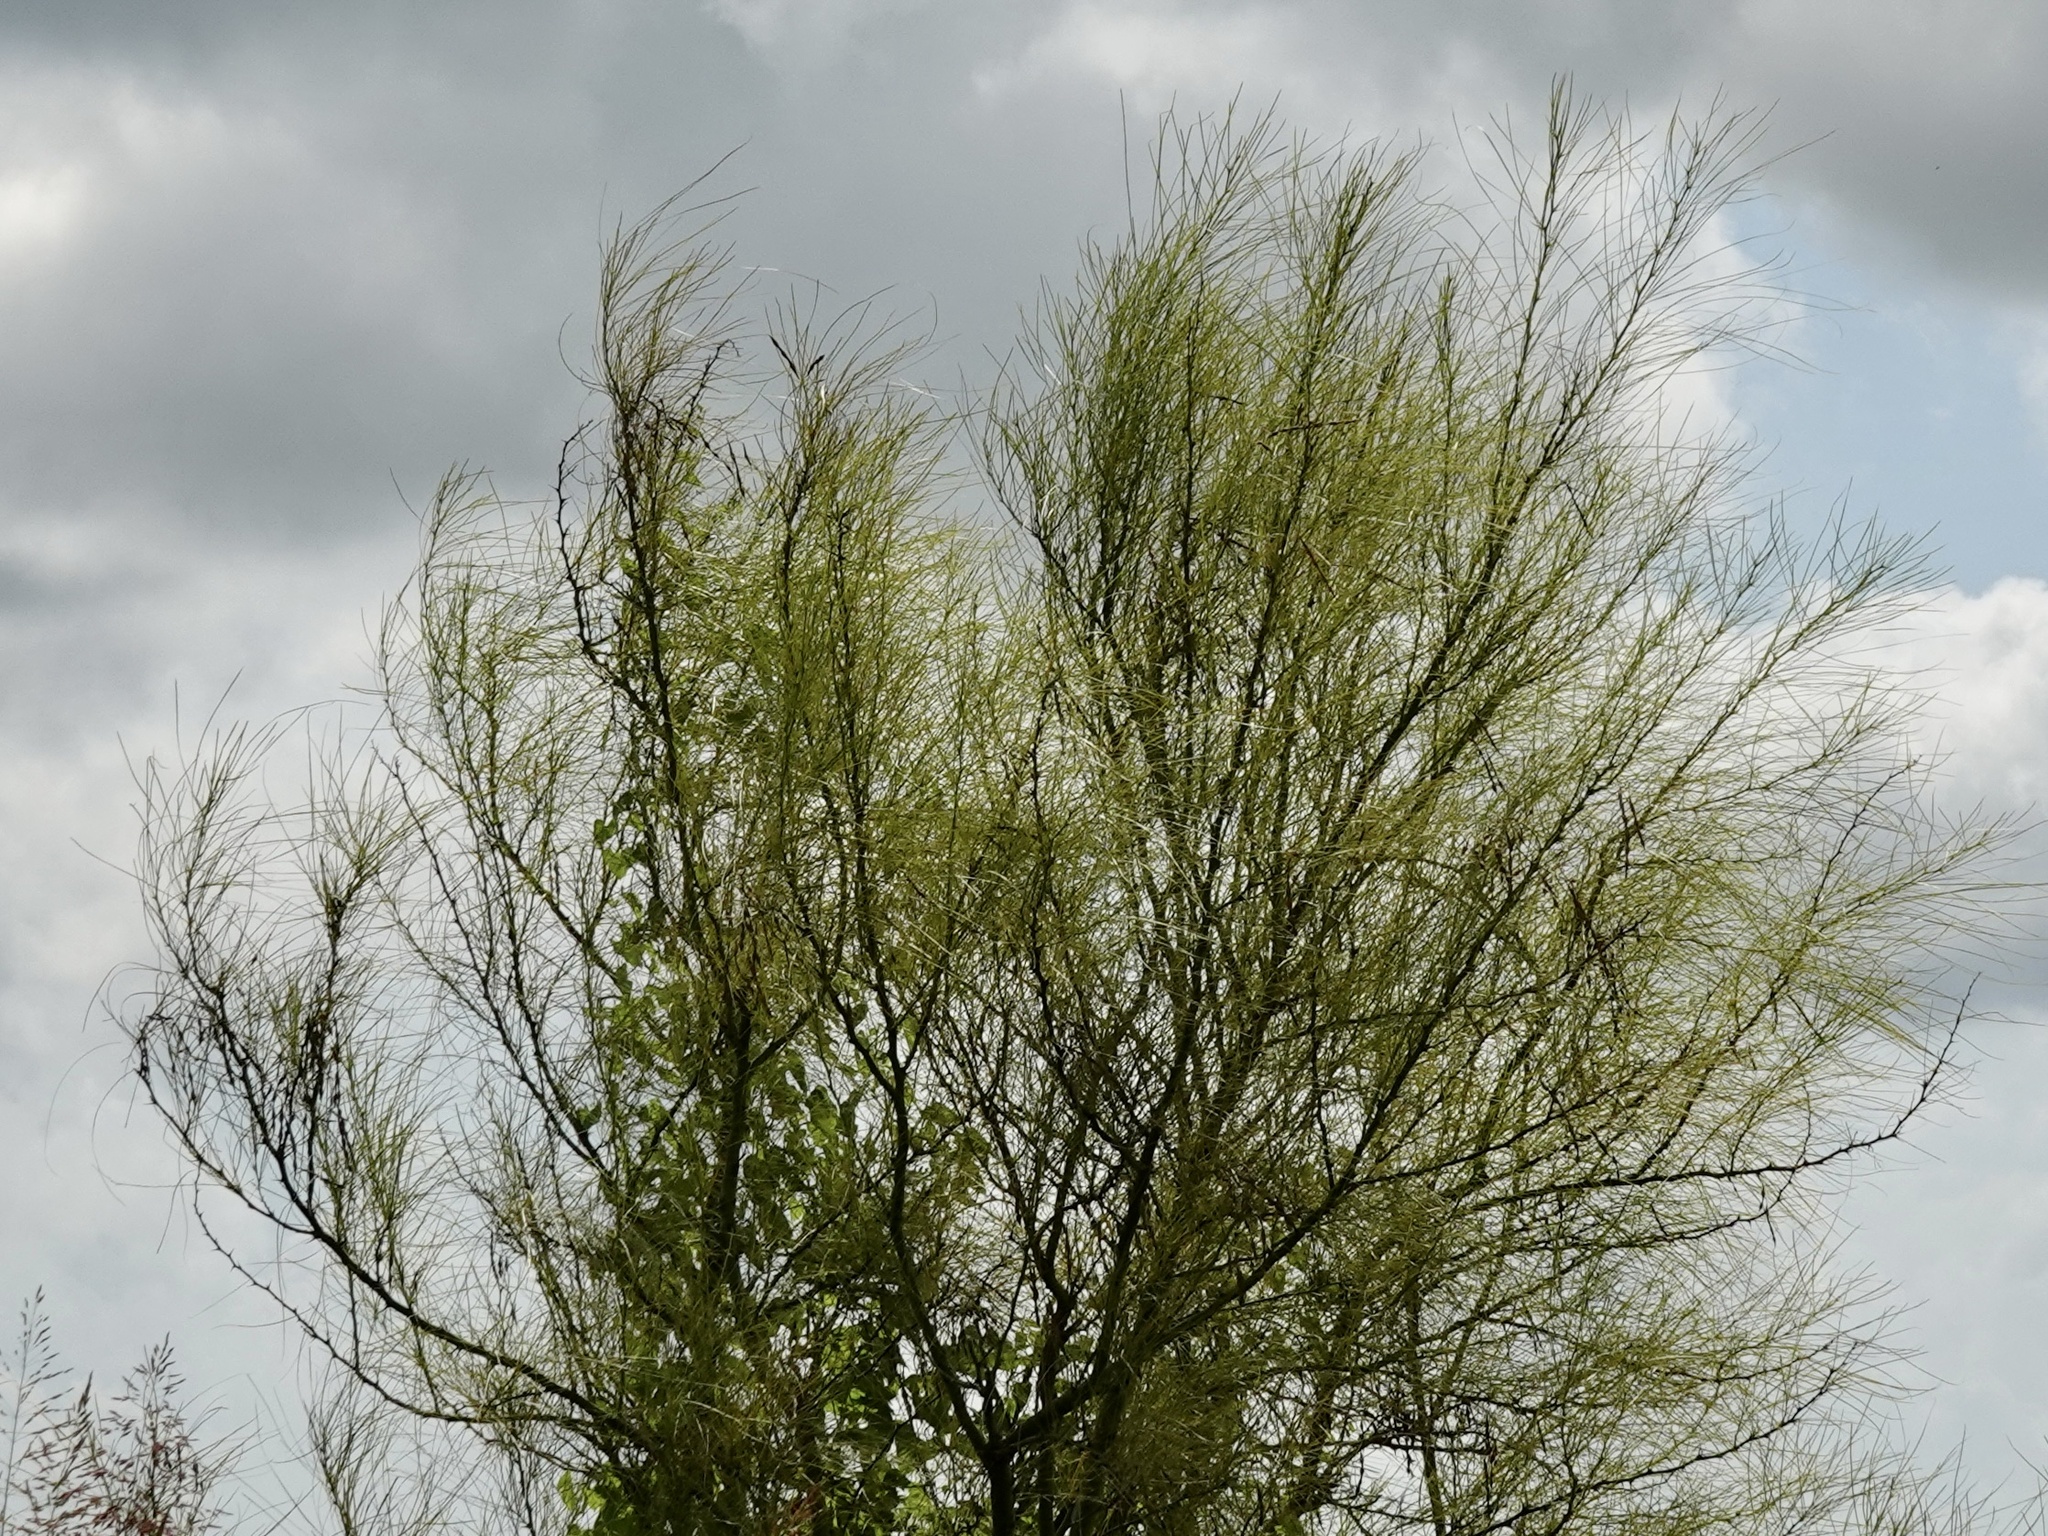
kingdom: Plantae
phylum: Tracheophyta
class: Magnoliopsida
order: Fabales
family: Fabaceae
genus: Parkinsonia
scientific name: Parkinsonia aculeata
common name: Jerusalem thorn
